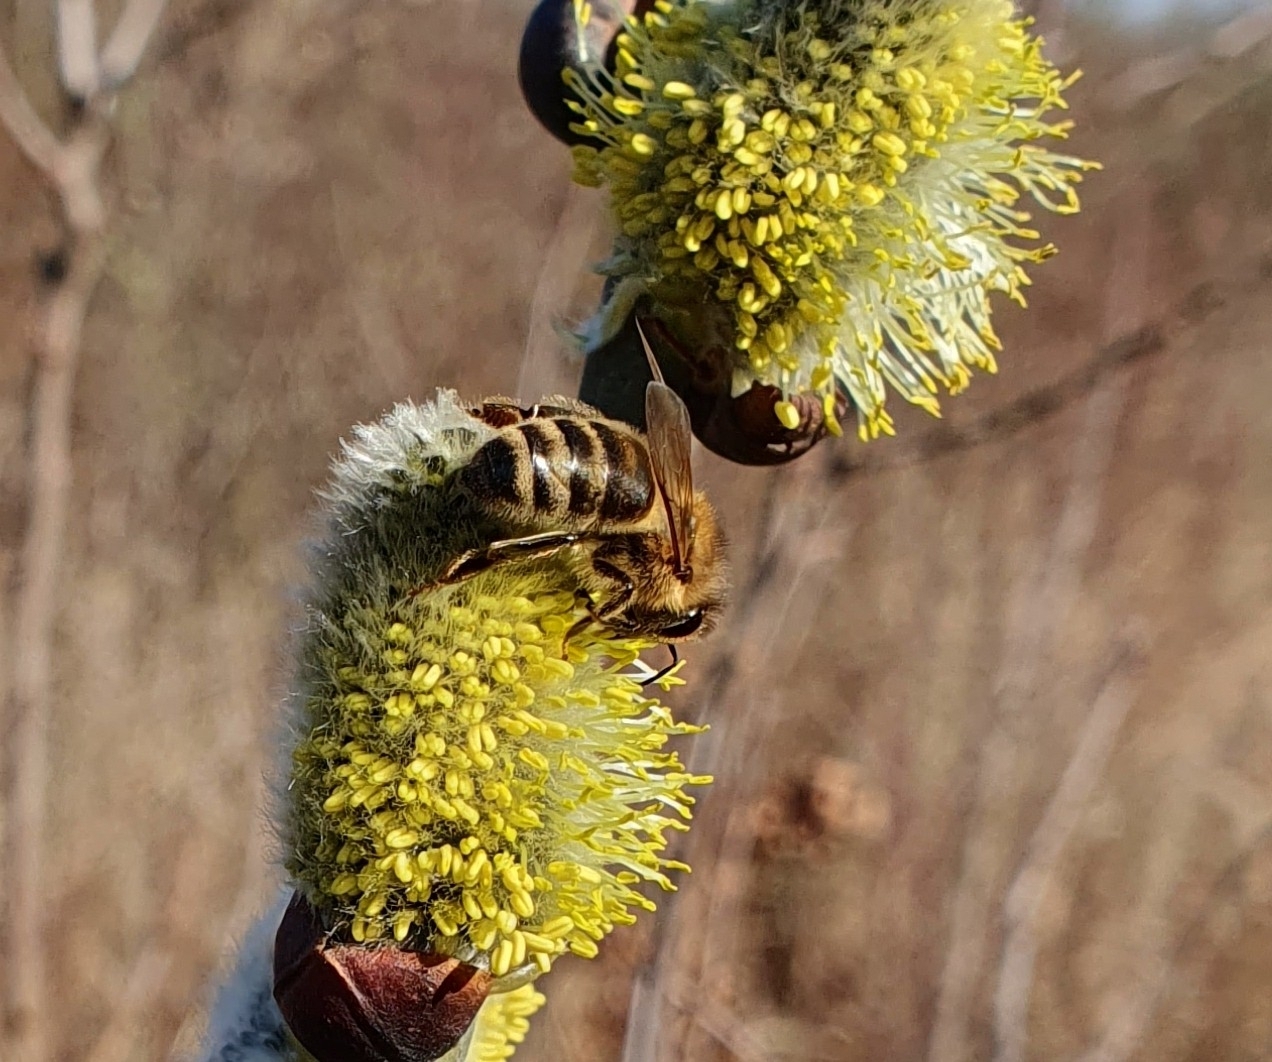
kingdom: Animalia
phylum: Arthropoda
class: Insecta
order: Hymenoptera
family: Apidae
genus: Apis
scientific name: Apis mellifera
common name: Honey bee
